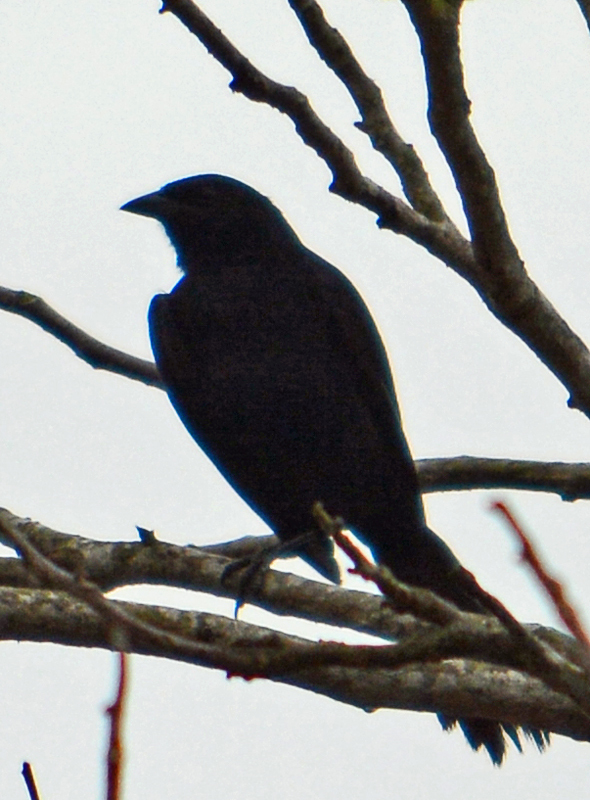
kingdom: Animalia
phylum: Chordata
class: Aves
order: Passeriformes
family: Icteridae
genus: Dives
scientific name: Dives dives
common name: Melodious blackbird
